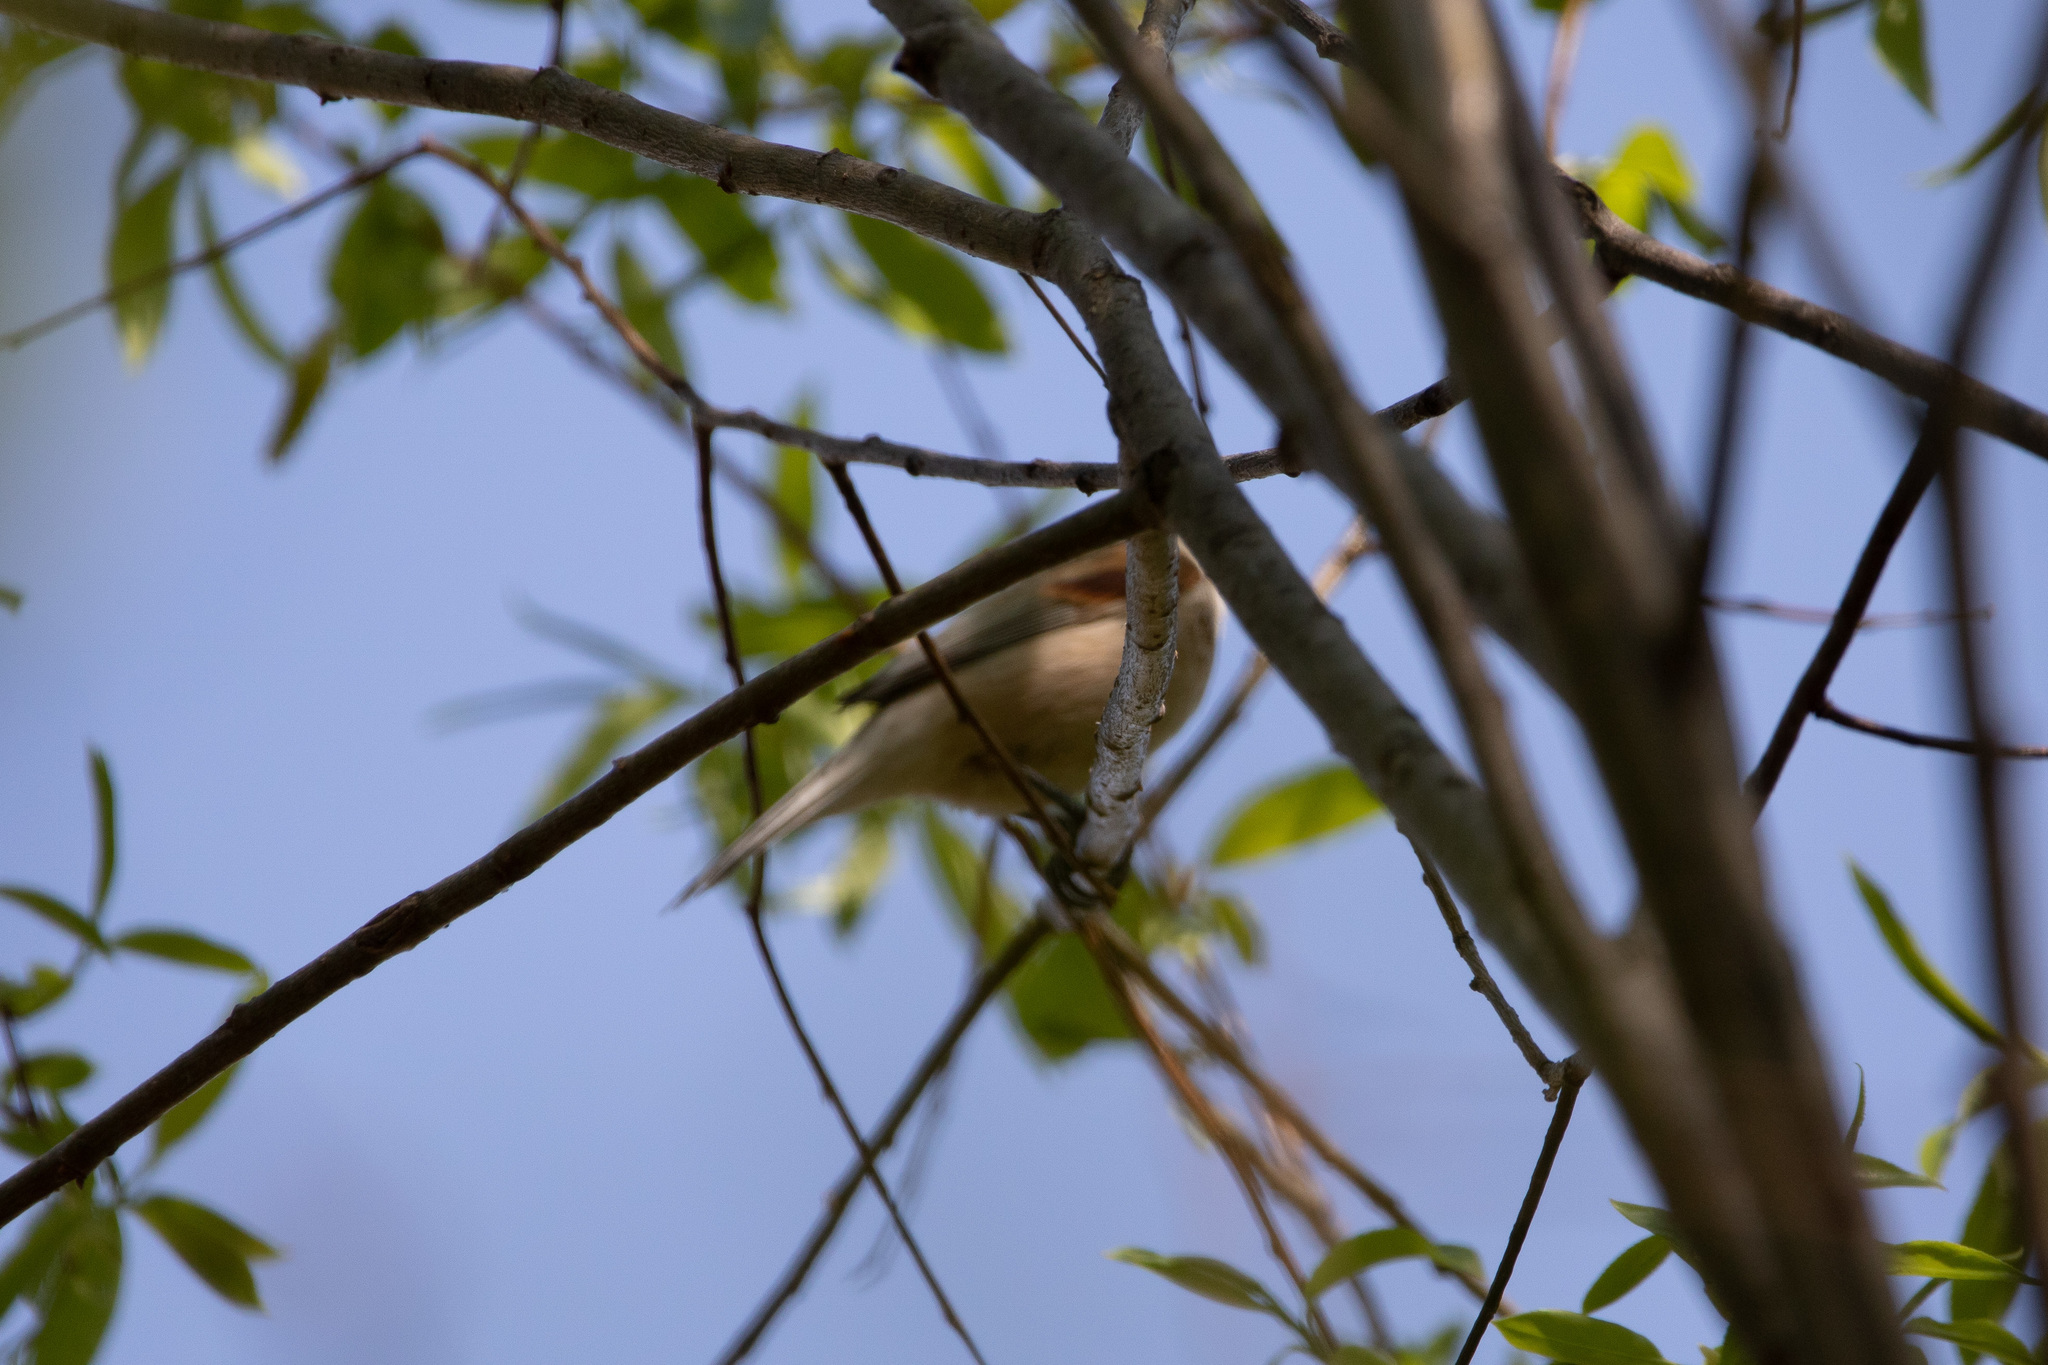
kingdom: Animalia
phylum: Chordata
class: Aves
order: Passeriformes
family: Remizidae
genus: Remiz
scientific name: Remiz pendulinus
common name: Eurasian penduline tit
